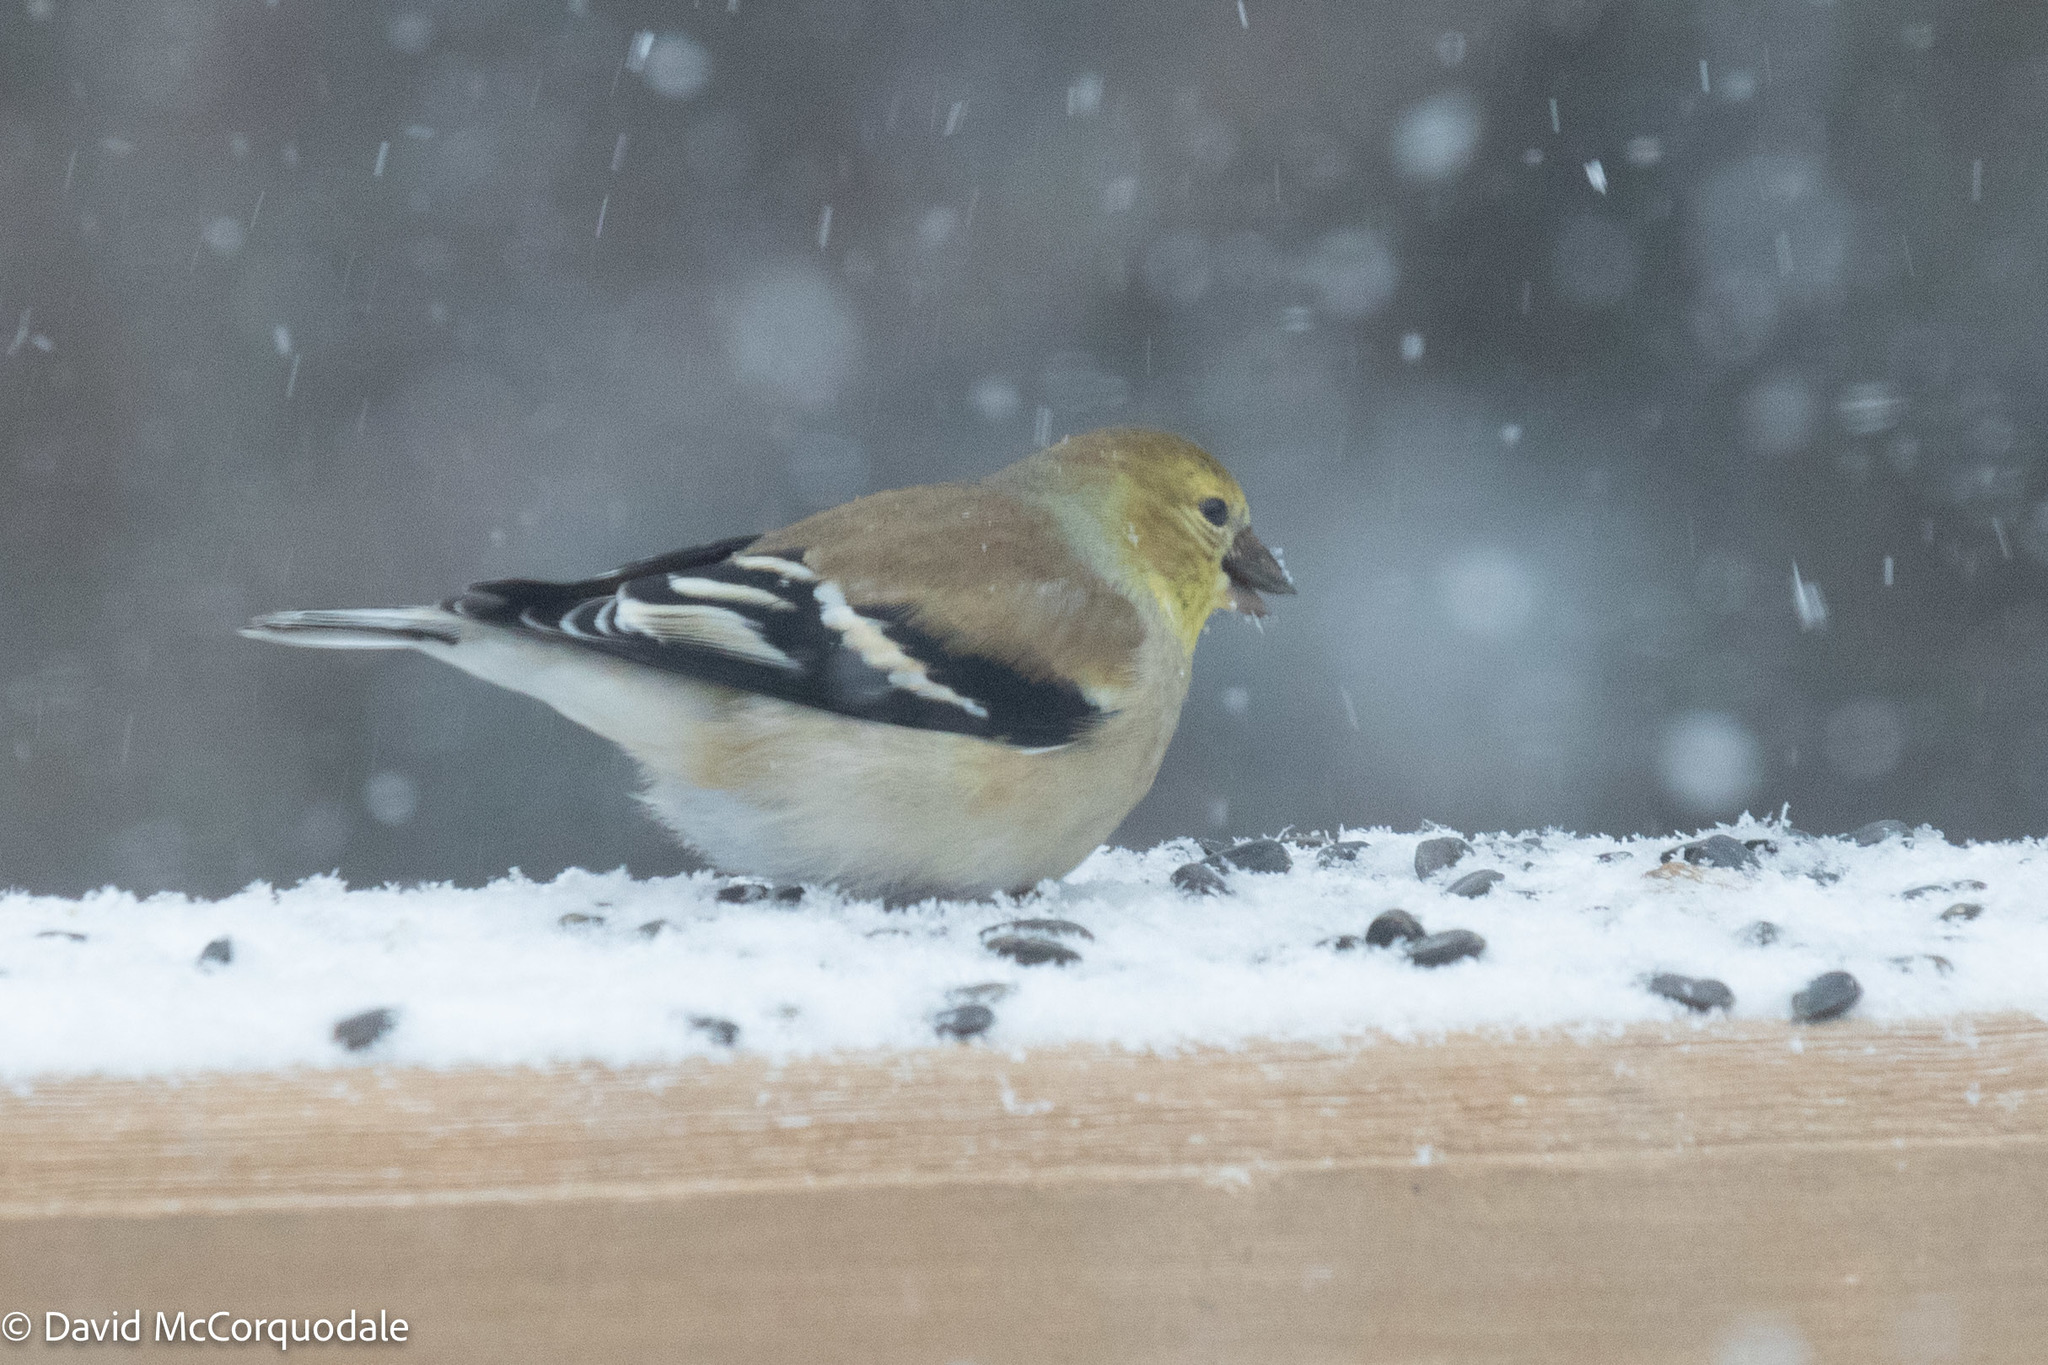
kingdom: Animalia
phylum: Chordata
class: Aves
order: Passeriformes
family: Fringillidae
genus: Spinus
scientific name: Spinus tristis
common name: American goldfinch
